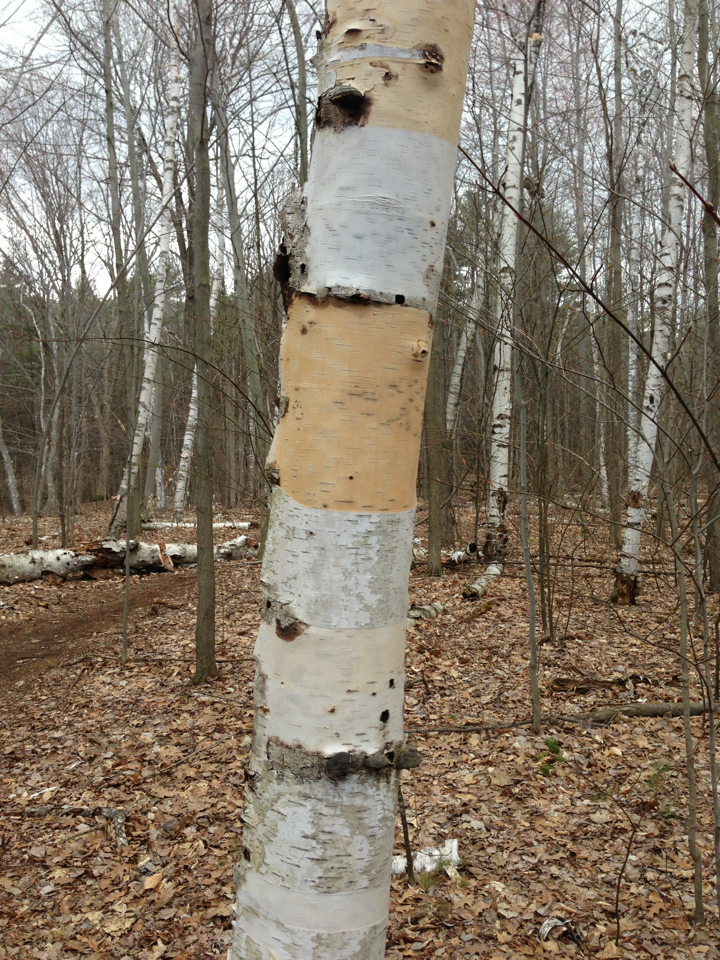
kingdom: Plantae
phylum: Tracheophyta
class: Magnoliopsida
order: Fagales
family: Betulaceae
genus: Betula
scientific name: Betula papyrifera
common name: Paper birch
